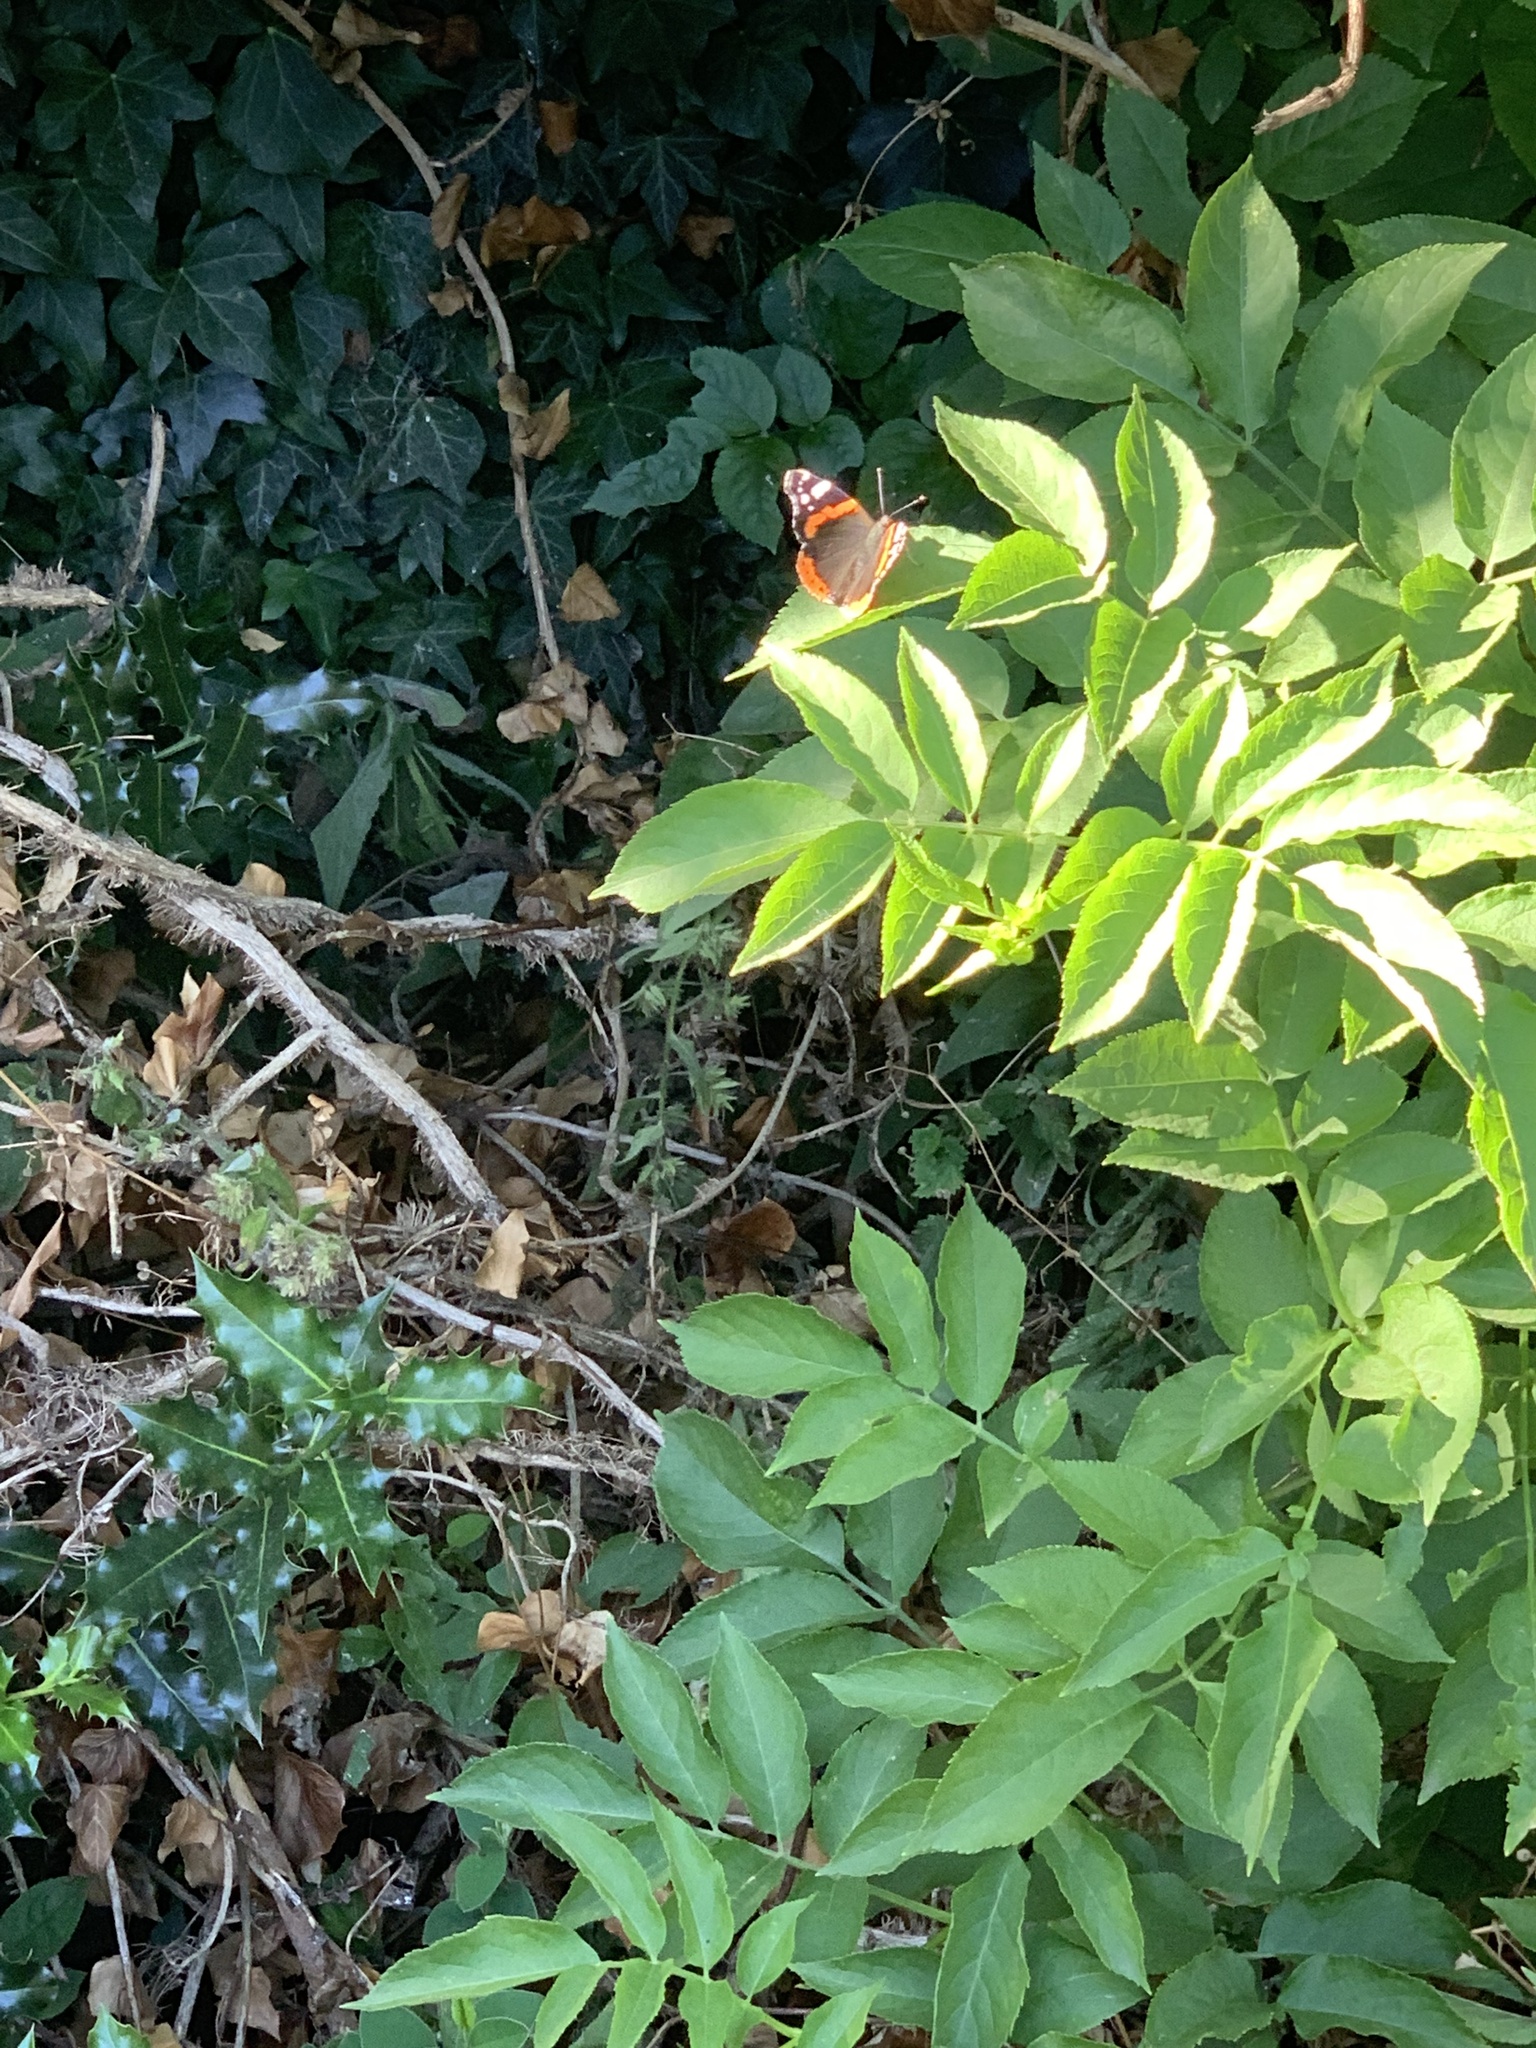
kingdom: Animalia
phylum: Arthropoda
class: Insecta
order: Lepidoptera
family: Nymphalidae
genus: Vanessa
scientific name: Vanessa atalanta
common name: Red admiral
